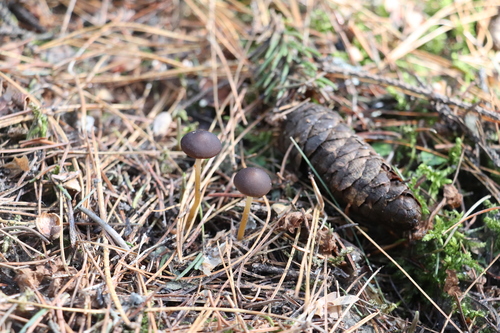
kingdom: Fungi
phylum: Basidiomycota
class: Agaricomycetes
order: Agaricales
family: Physalacriaceae
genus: Strobilurus
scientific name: Strobilurus esculentus
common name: Sprucecone cap
